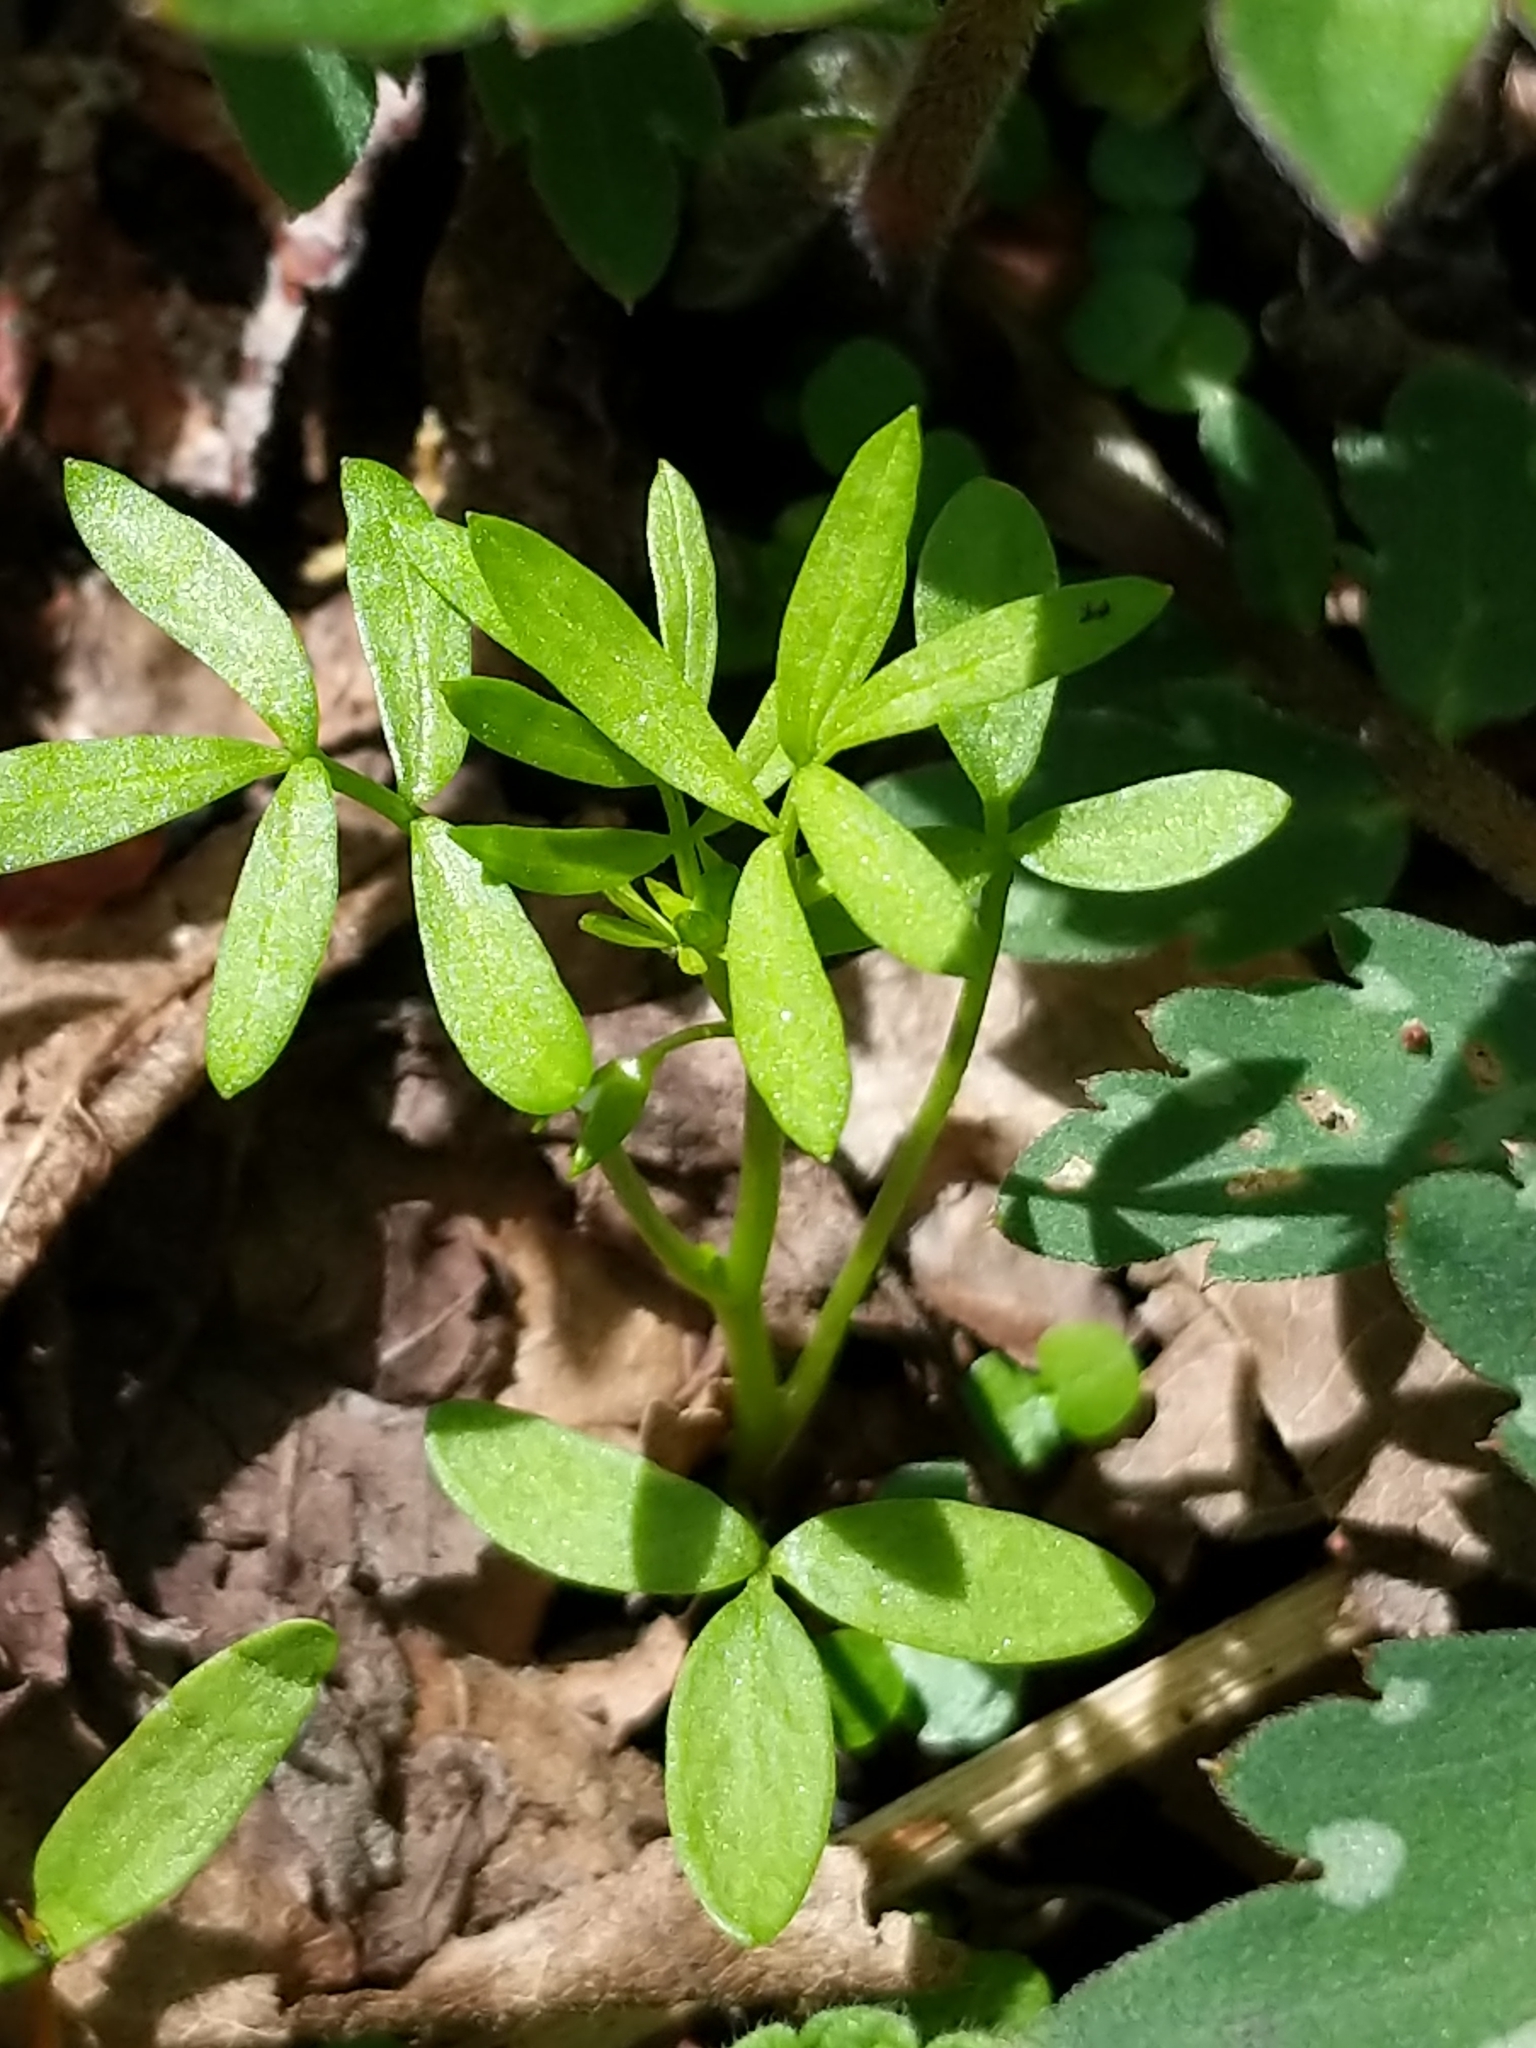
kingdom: Plantae
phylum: Tracheophyta
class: Magnoliopsida
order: Brassicales
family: Limnanthaceae
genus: Floerkea
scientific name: Floerkea proserpinacoides
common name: False mermaid
